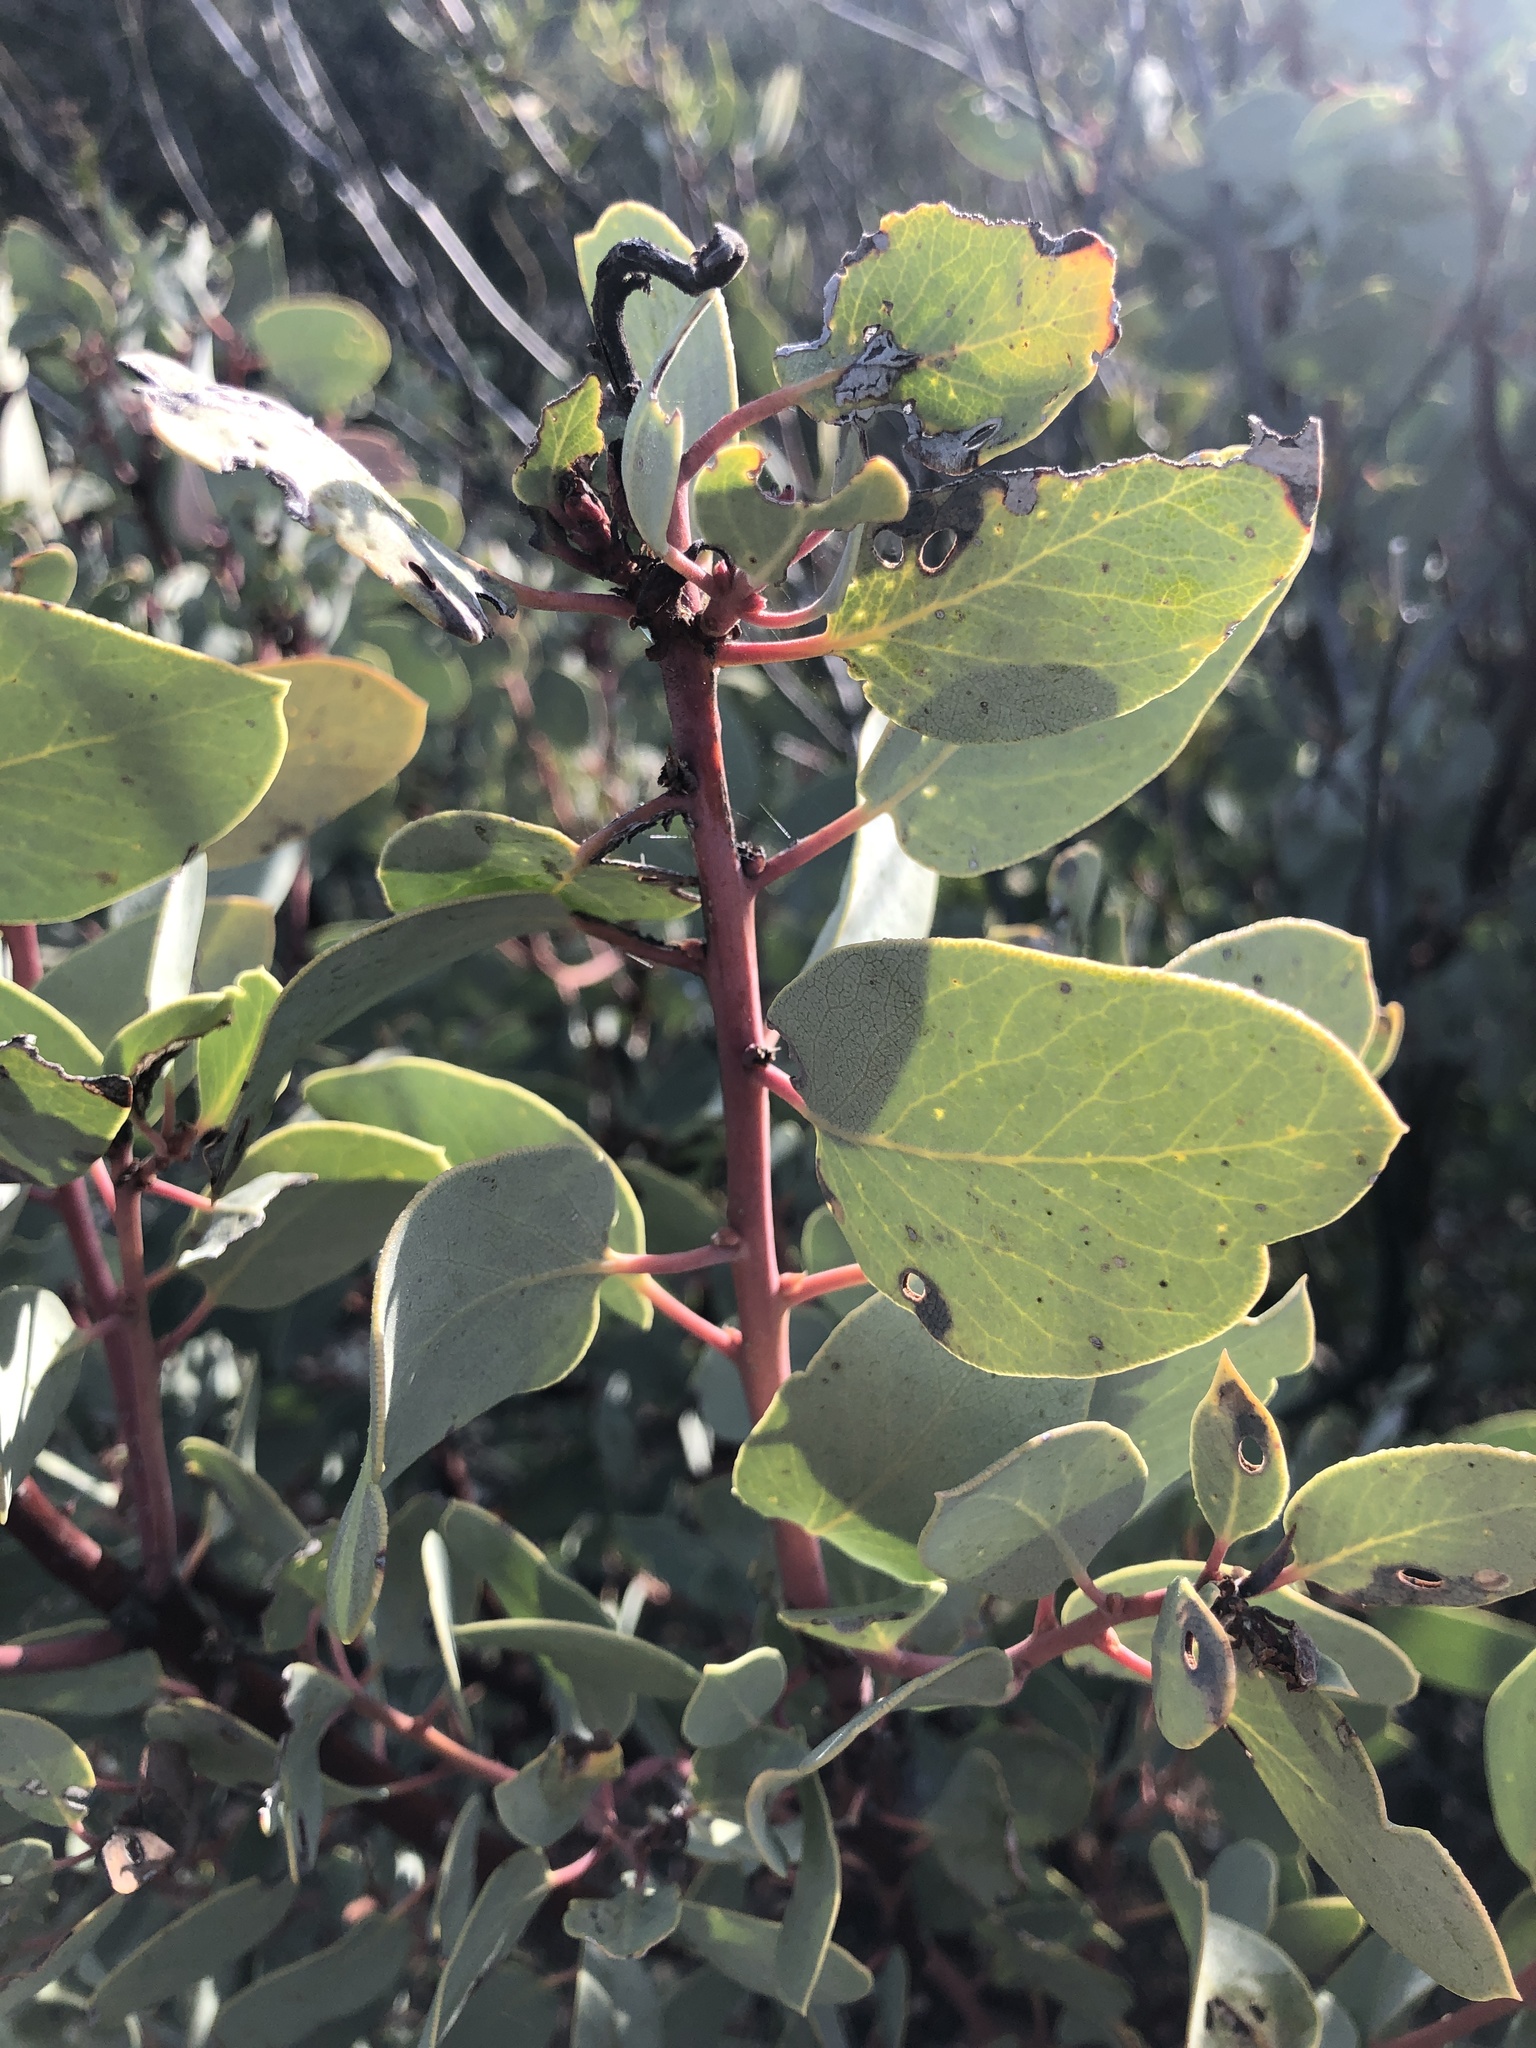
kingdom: Plantae
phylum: Tracheophyta
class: Magnoliopsida
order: Ericales
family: Ericaceae
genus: Arctostaphylos
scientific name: Arctostaphylos glauca
